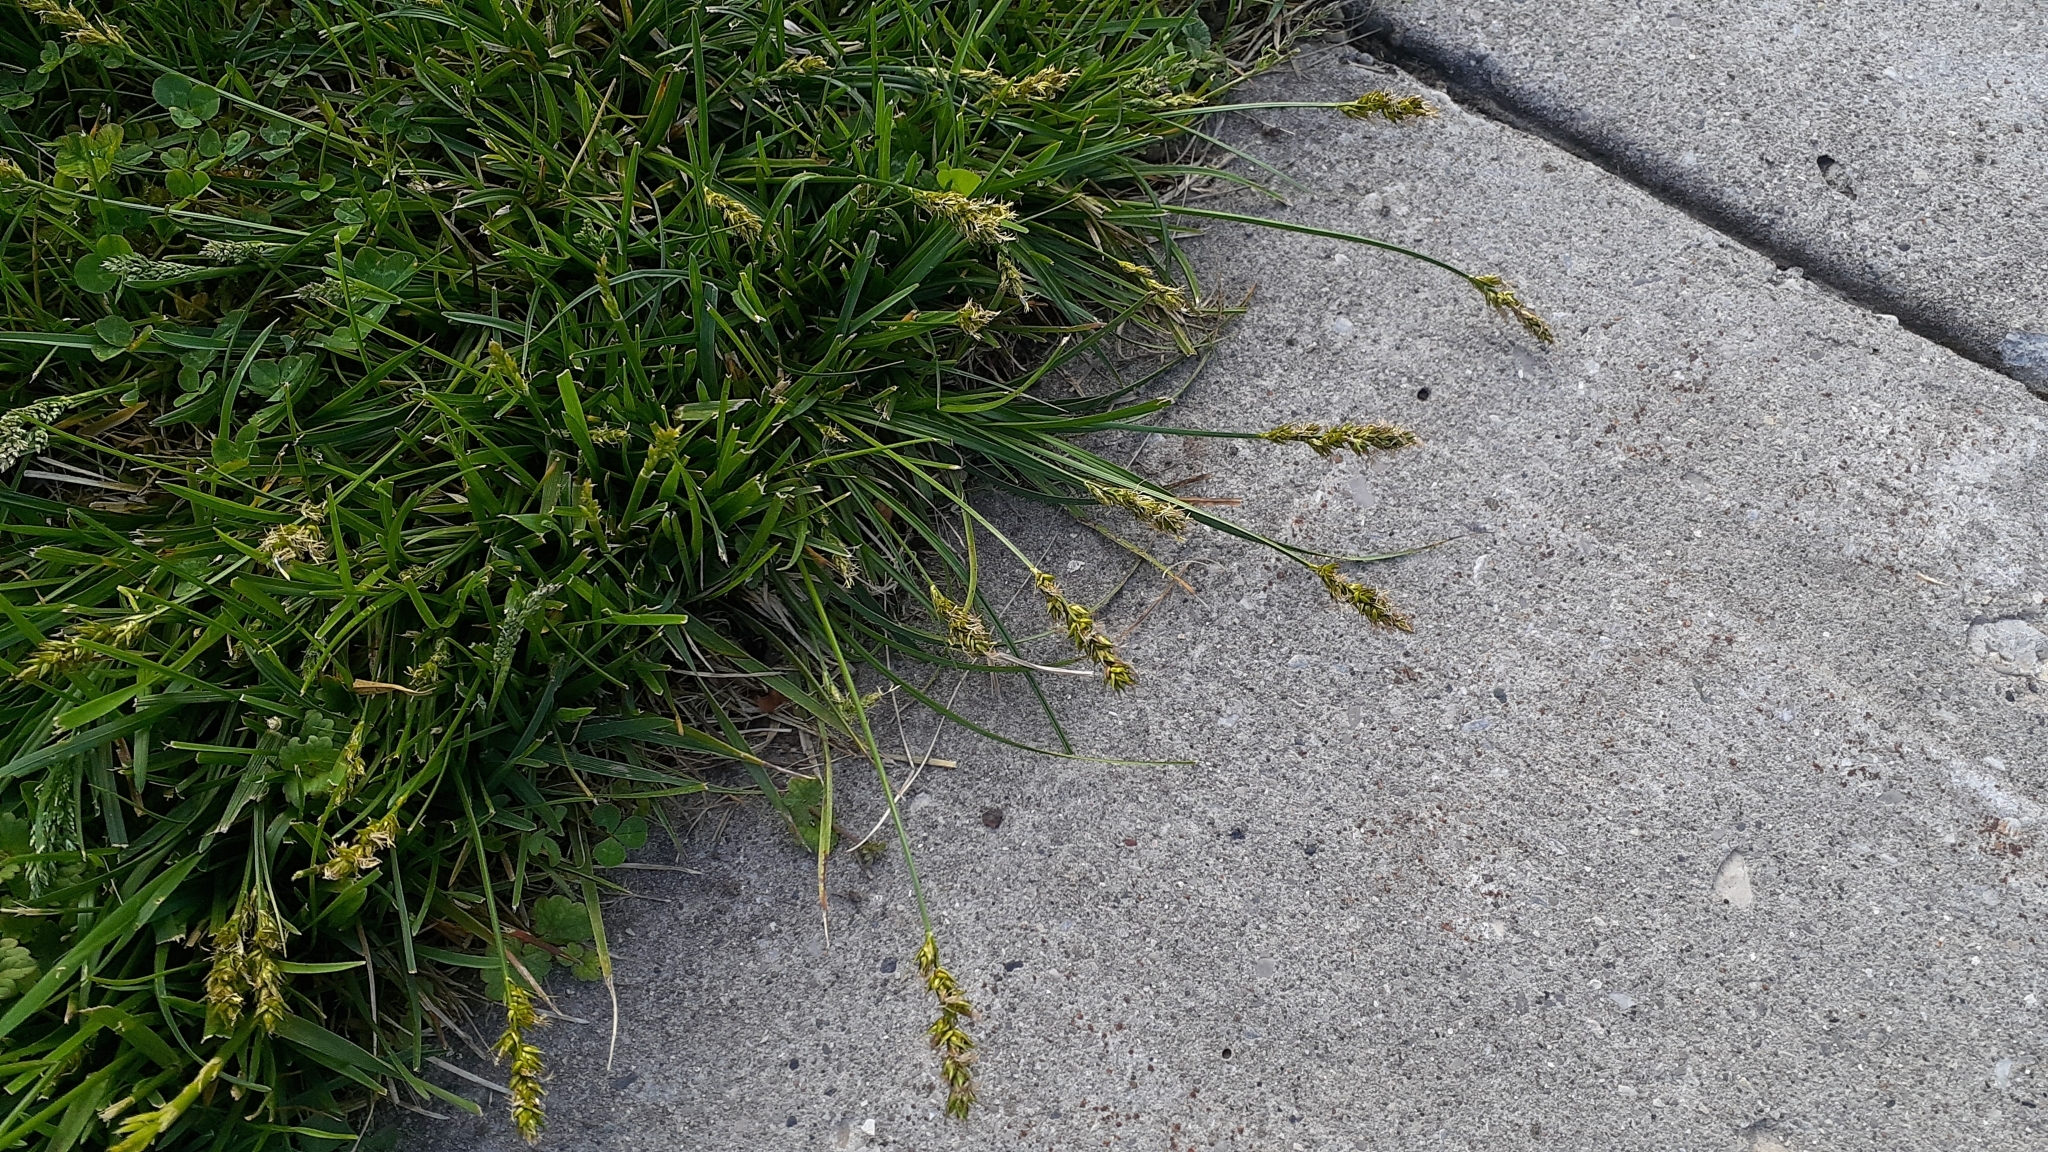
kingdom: Plantae
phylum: Tracheophyta
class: Liliopsida
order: Poales
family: Cyperaceae
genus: Carex
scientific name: Carex spicata
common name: Spiked sedge
